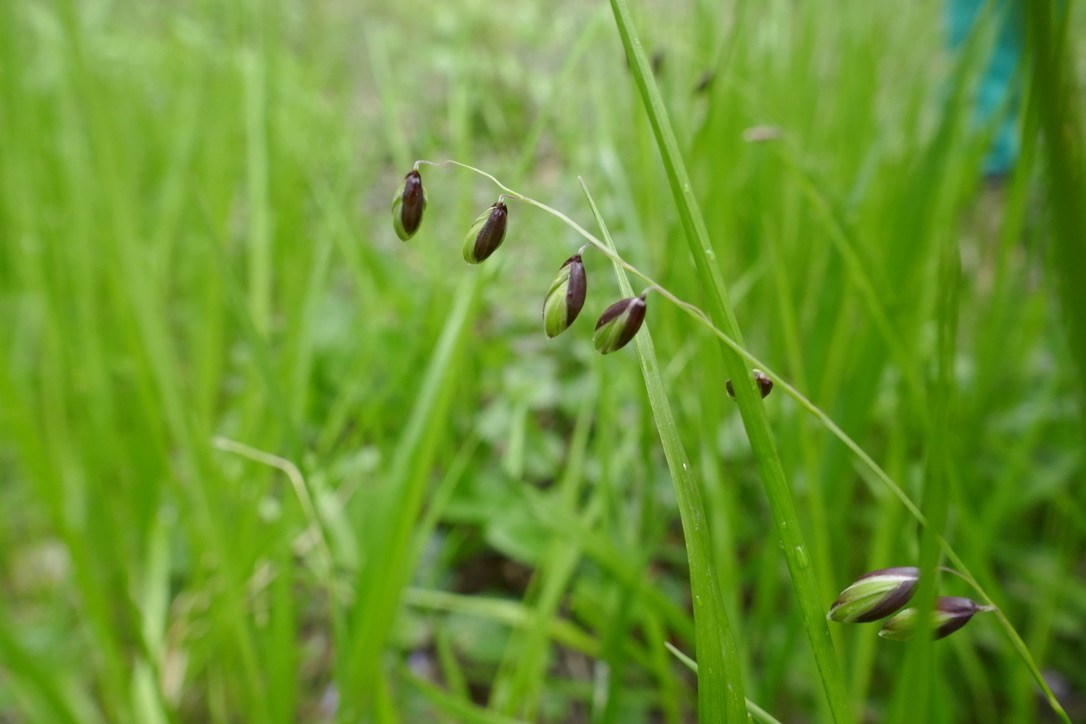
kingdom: Plantae
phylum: Tracheophyta
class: Liliopsida
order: Poales
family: Poaceae
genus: Melica
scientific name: Melica nutans
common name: Mountain melick
